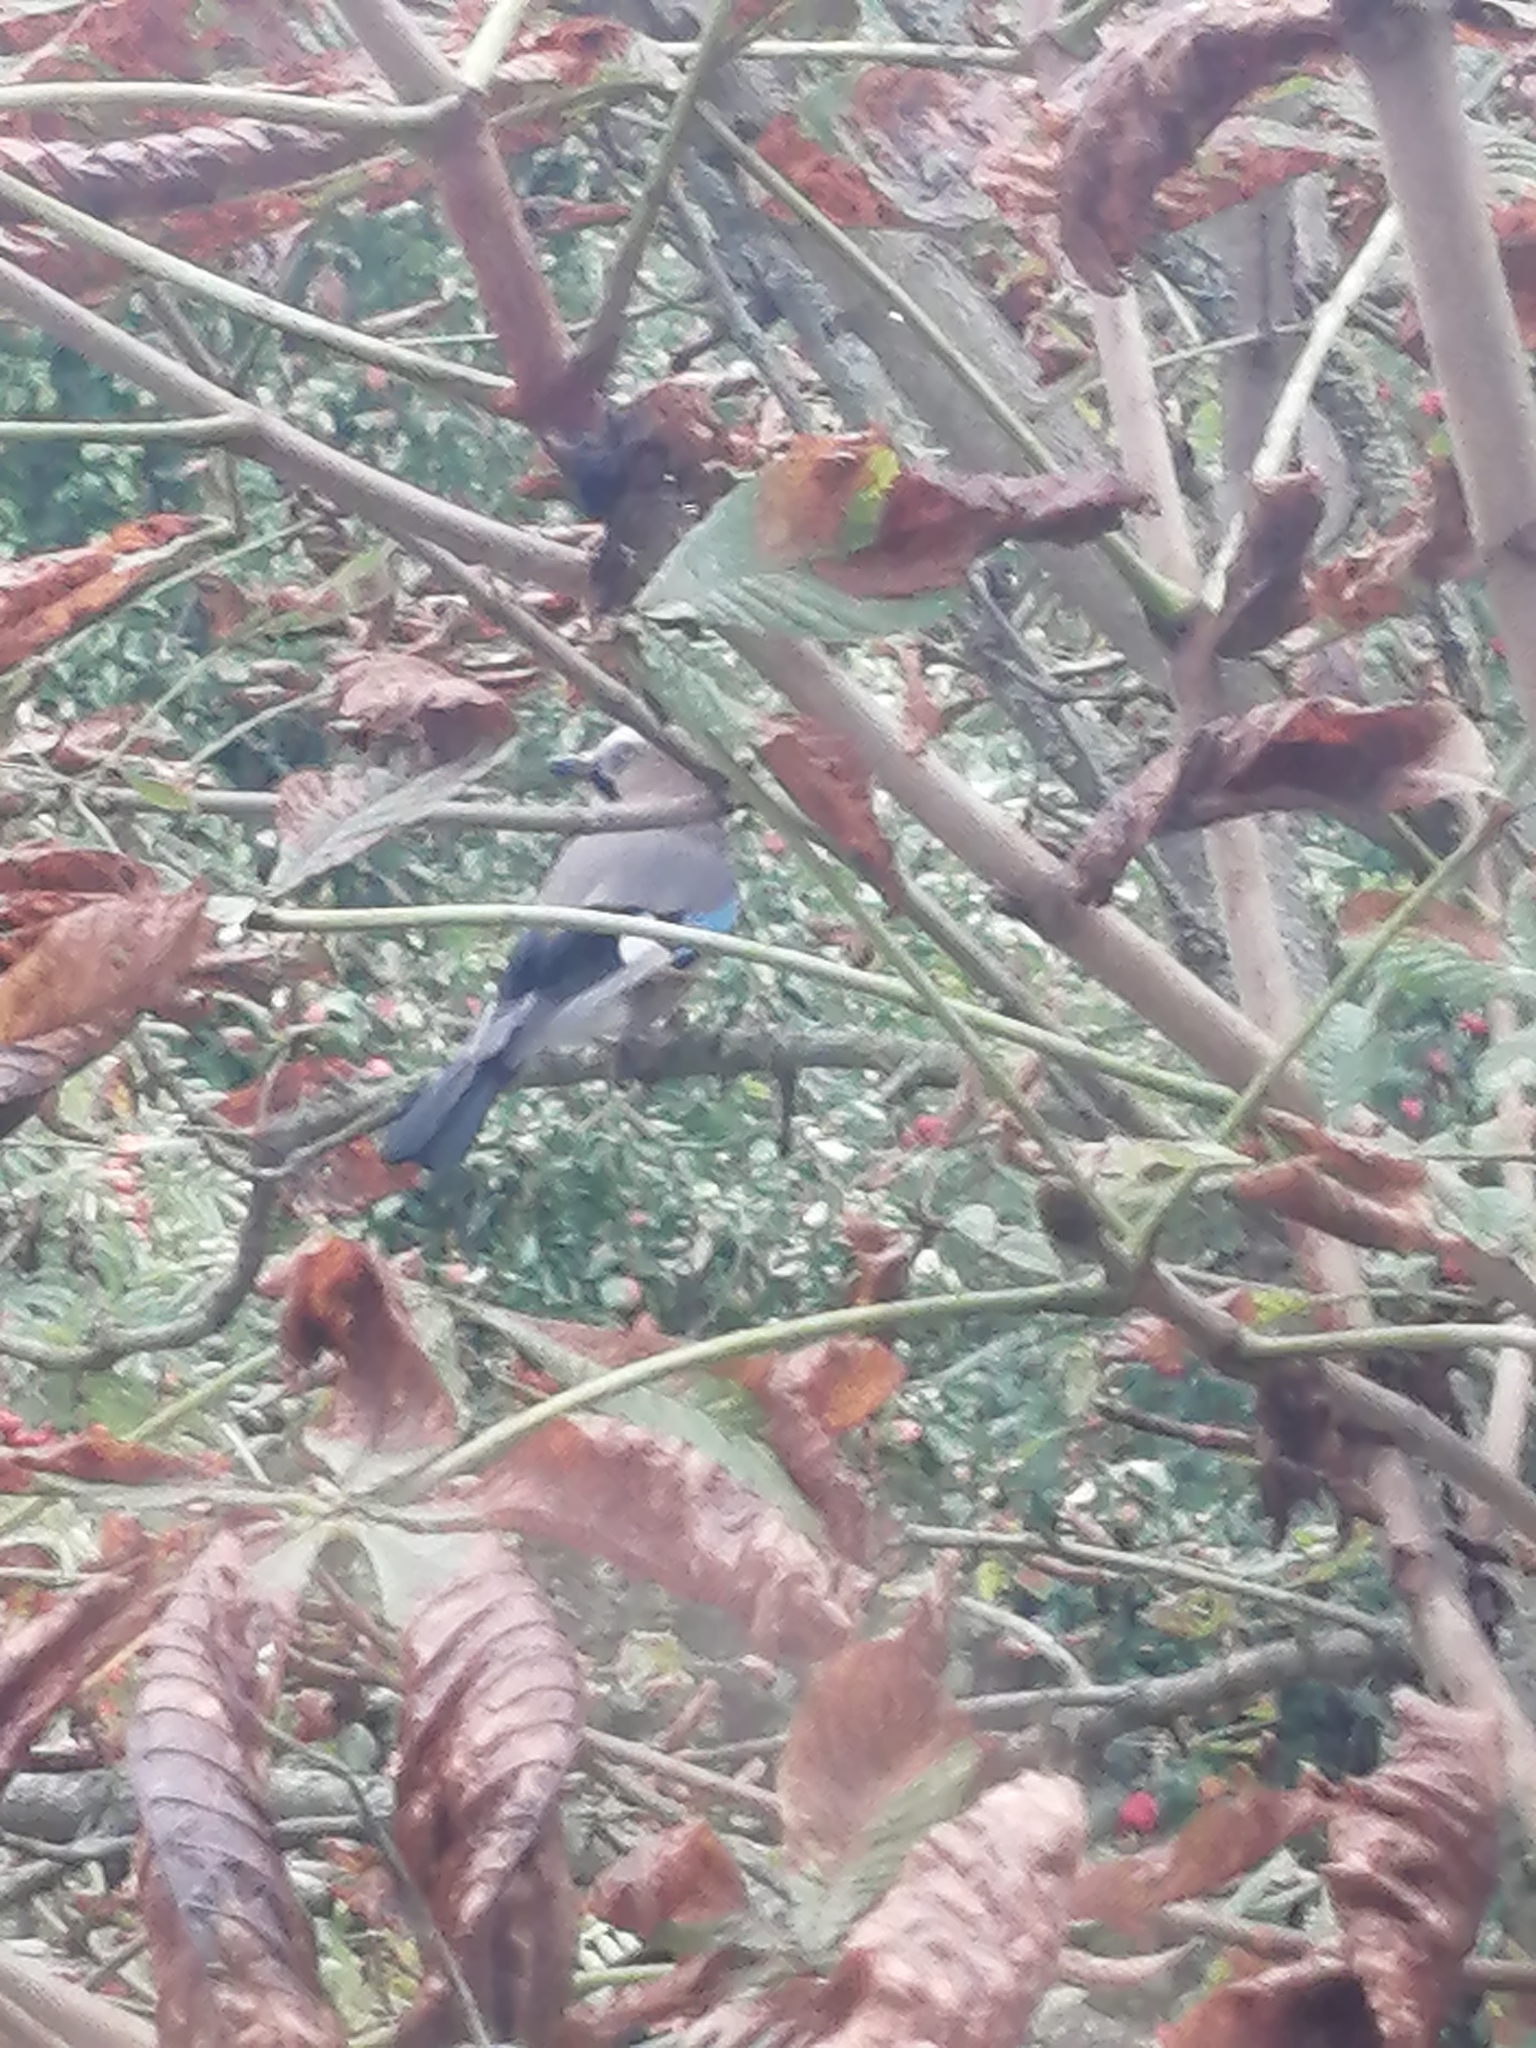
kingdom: Animalia
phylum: Chordata
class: Aves
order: Passeriformes
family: Corvidae
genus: Garrulus
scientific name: Garrulus glandarius
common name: Eurasian jay
